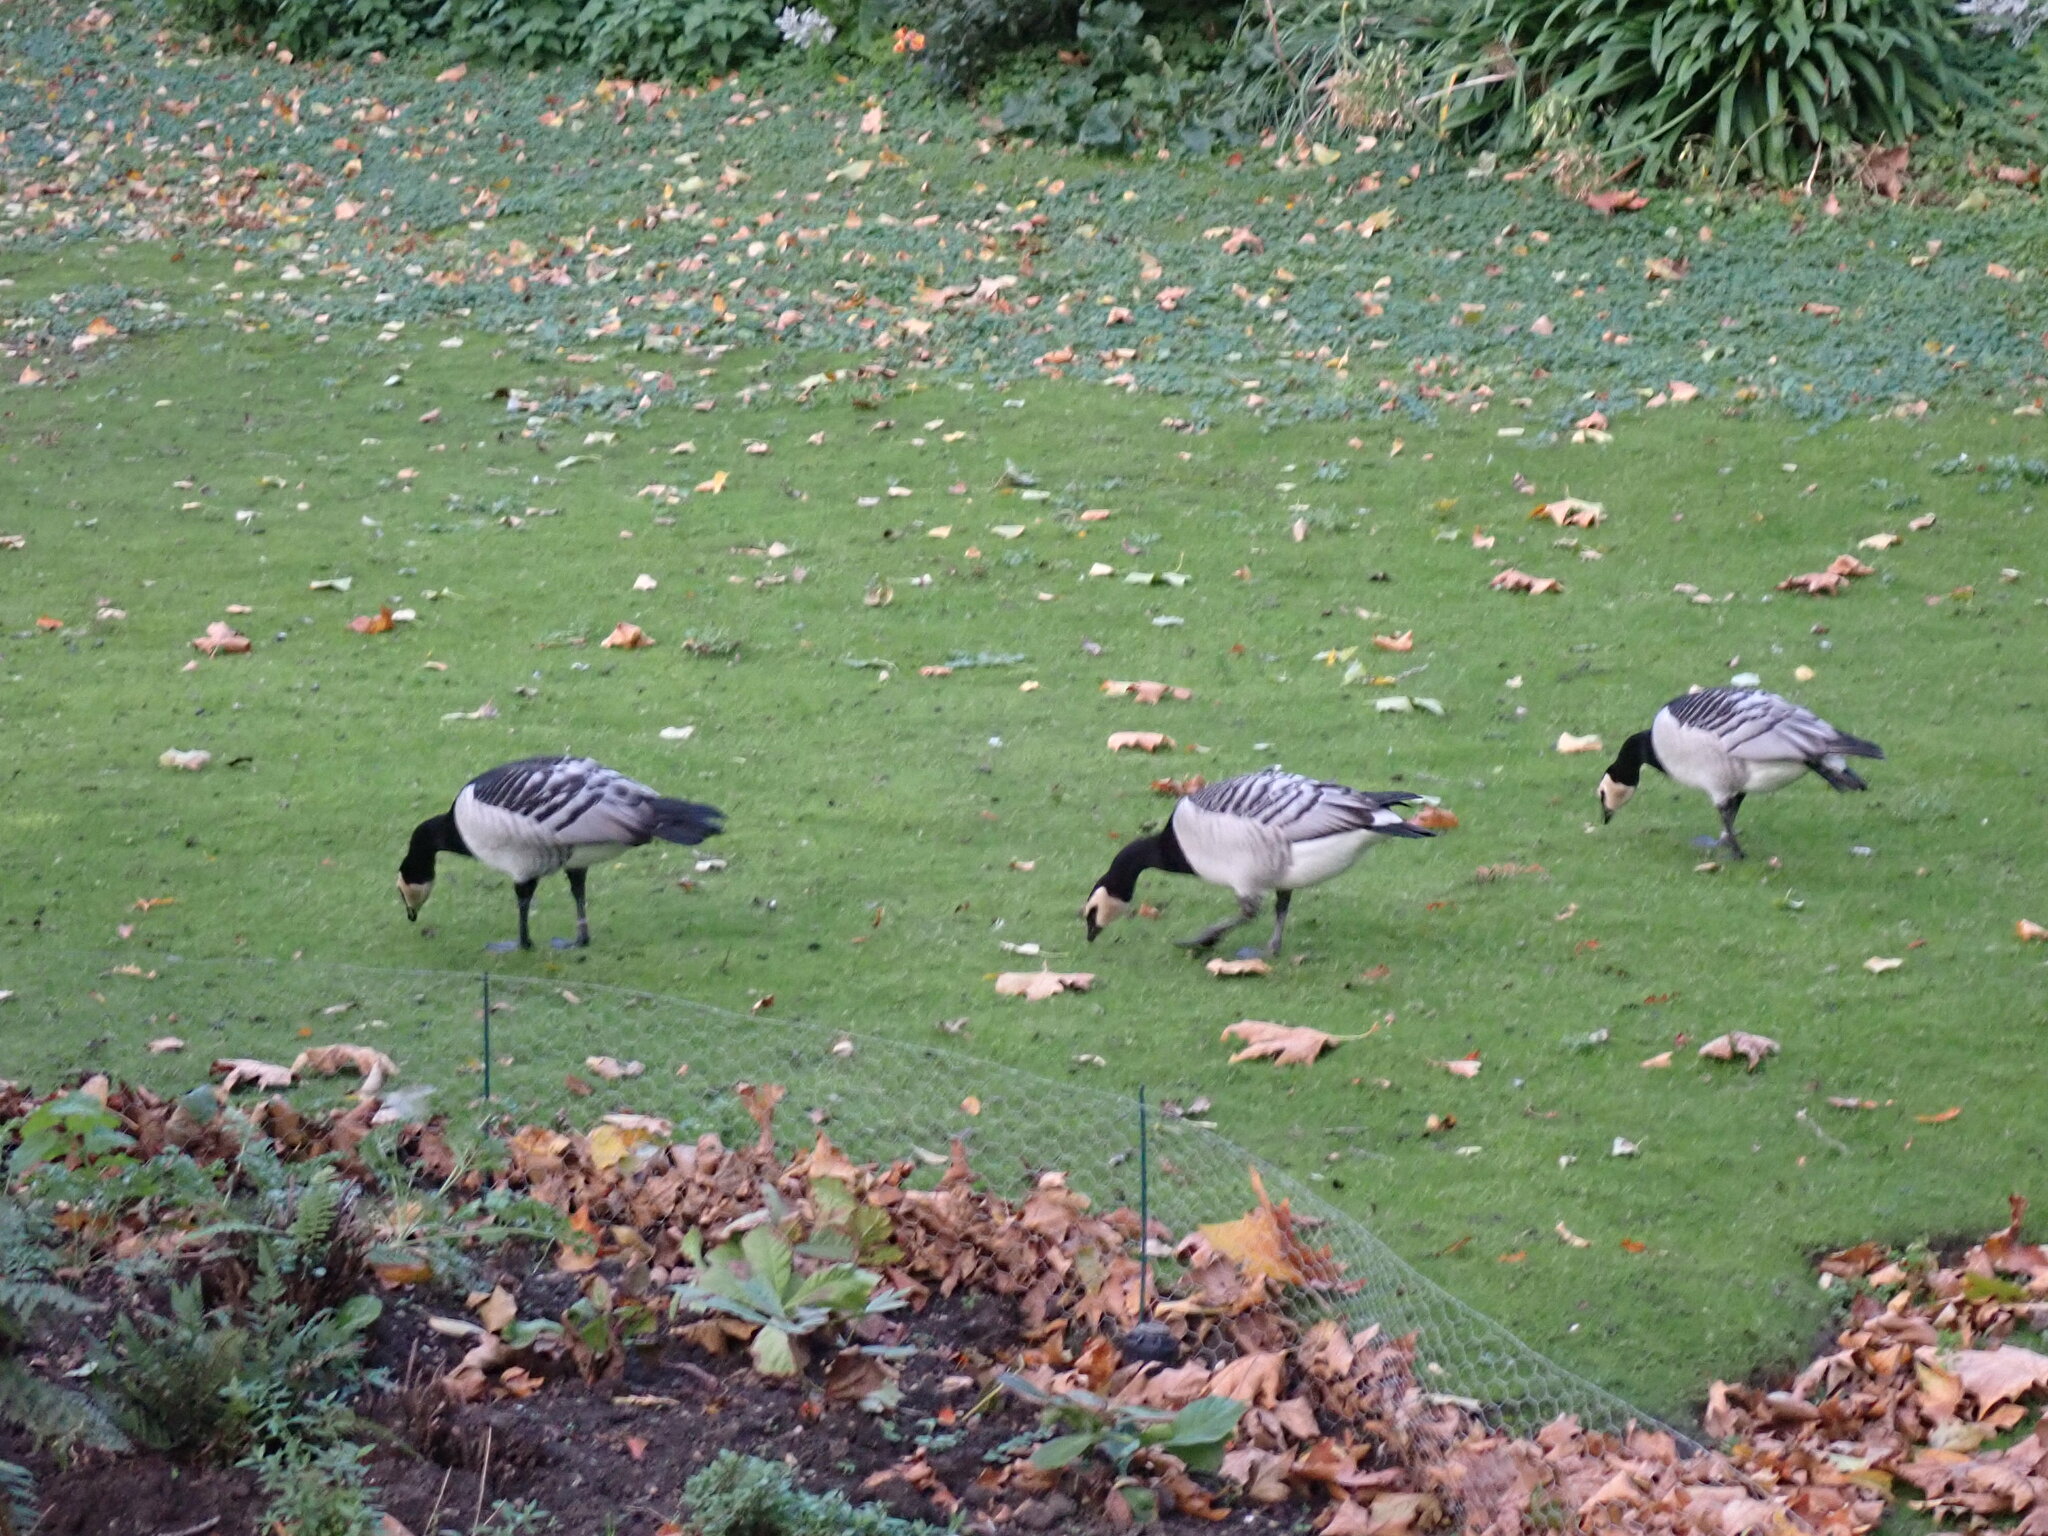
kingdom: Animalia
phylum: Chordata
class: Aves
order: Anseriformes
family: Anatidae
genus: Branta
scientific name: Branta leucopsis
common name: Barnacle goose
